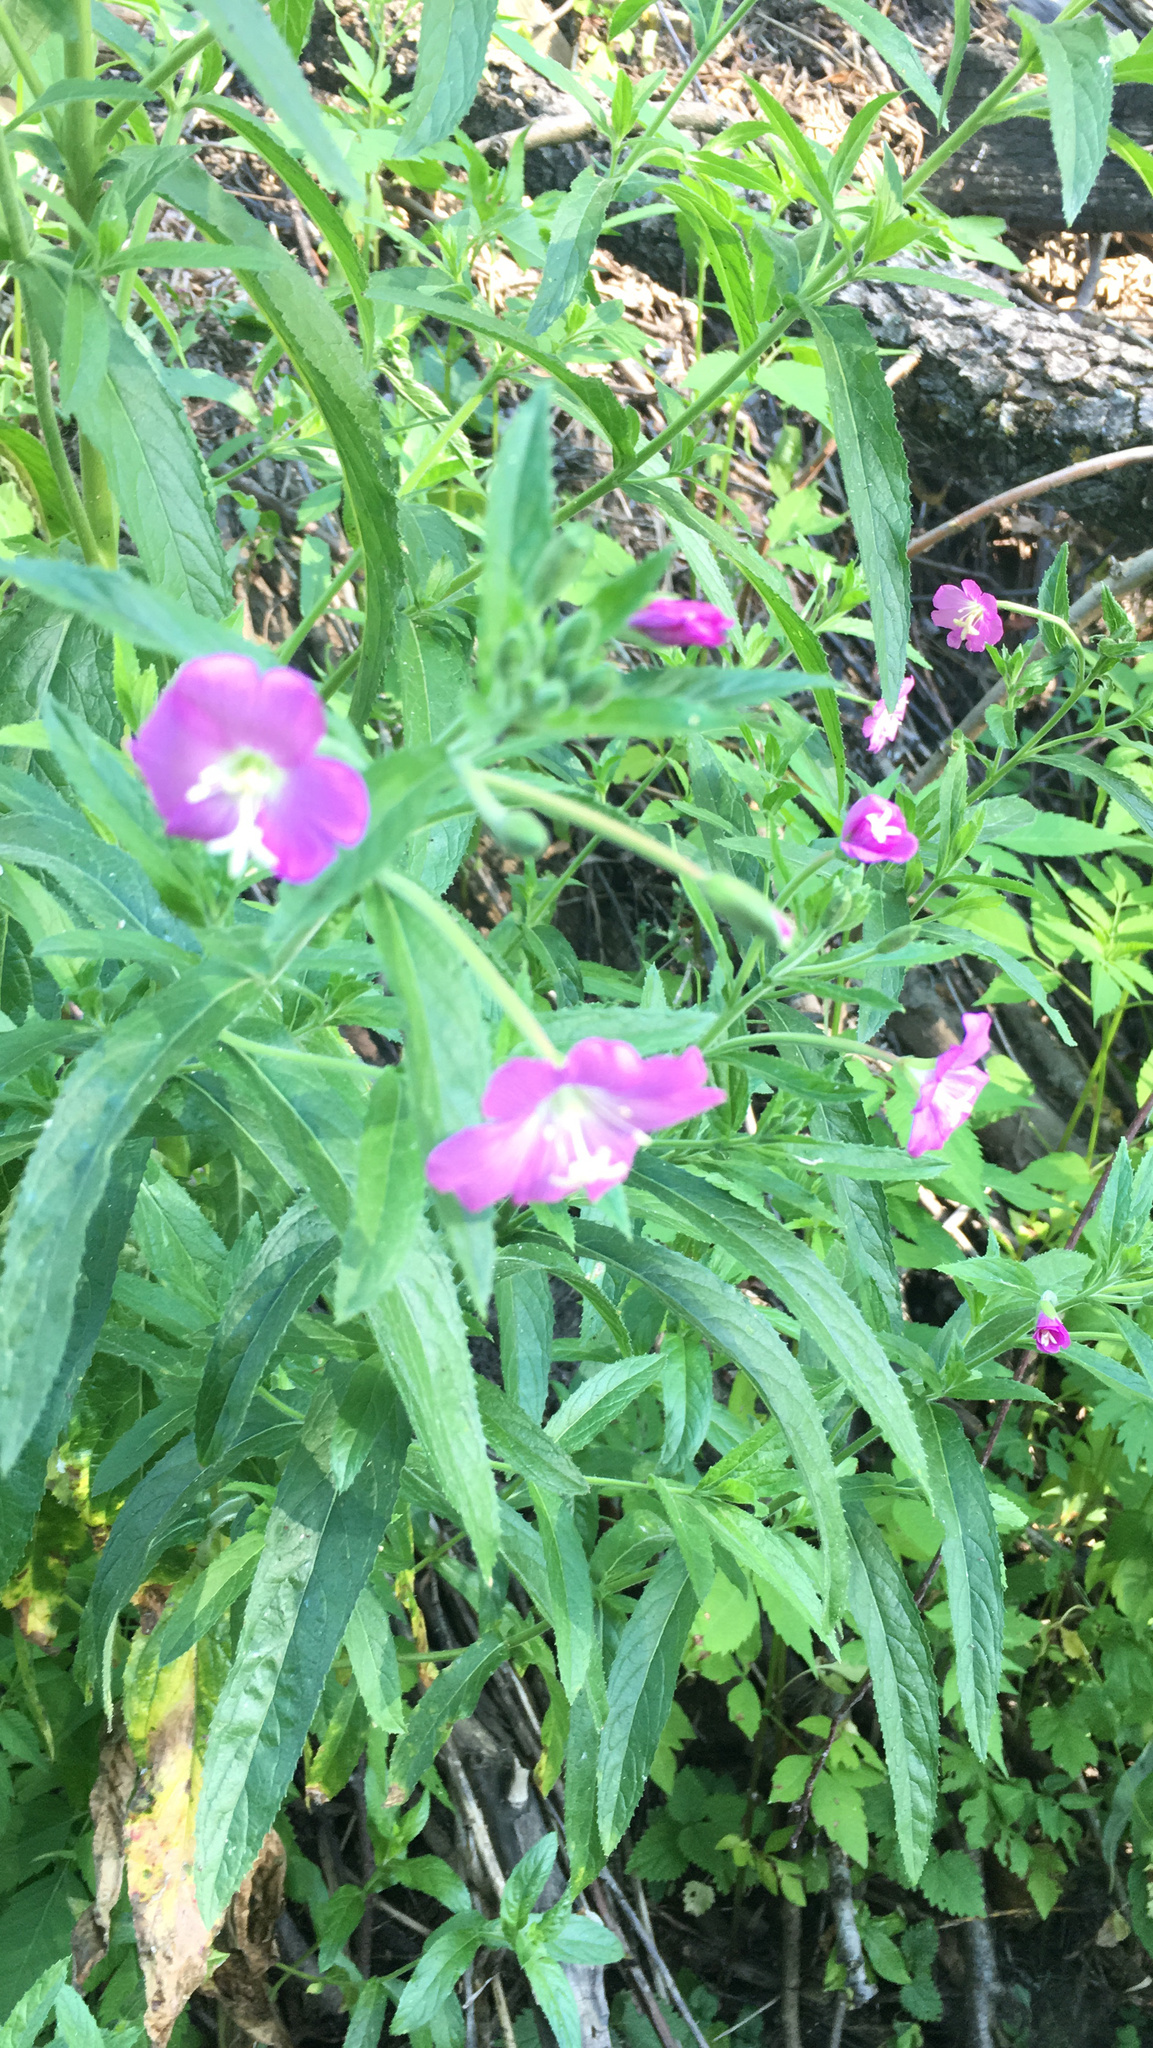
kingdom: Plantae
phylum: Tracheophyta
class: Magnoliopsida
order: Myrtales
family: Onagraceae
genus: Epilobium
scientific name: Epilobium hirsutum
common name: Great willowherb
